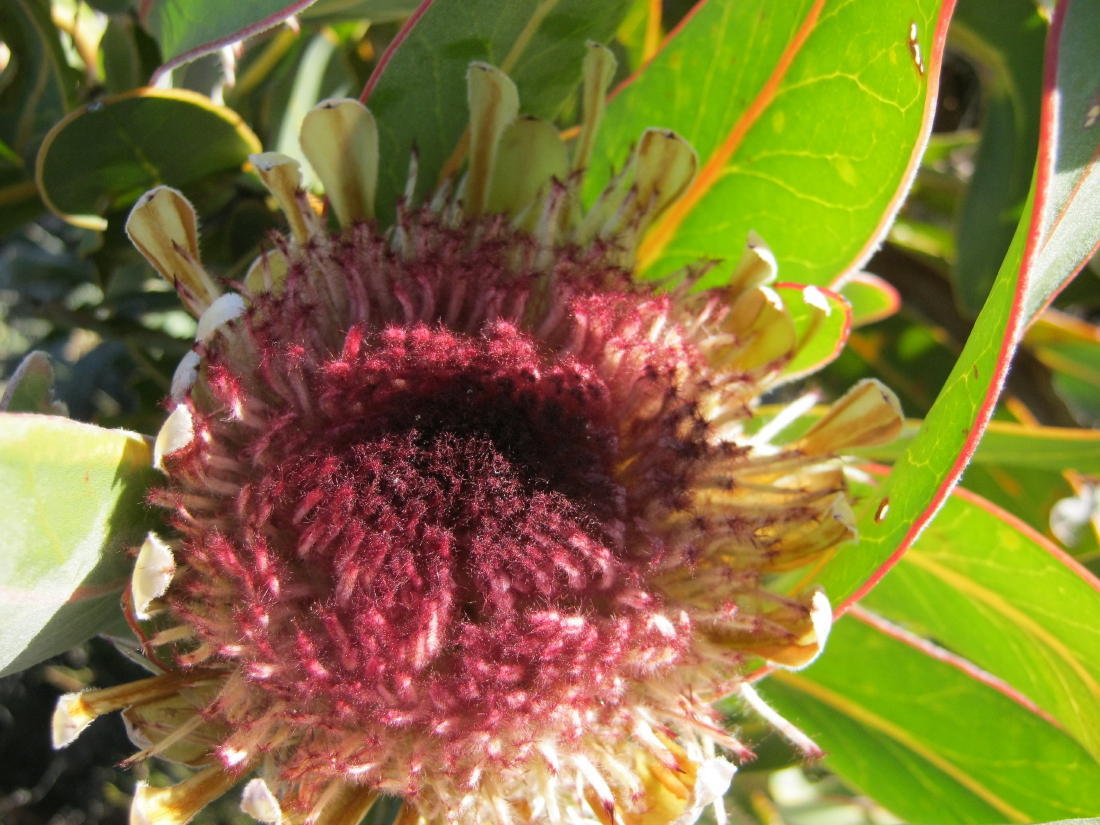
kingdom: Plantae
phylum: Tracheophyta
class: Magnoliopsida
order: Proteales
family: Proteaceae
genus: Protea
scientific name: Protea lorifolia
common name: Strap-leaved protea
